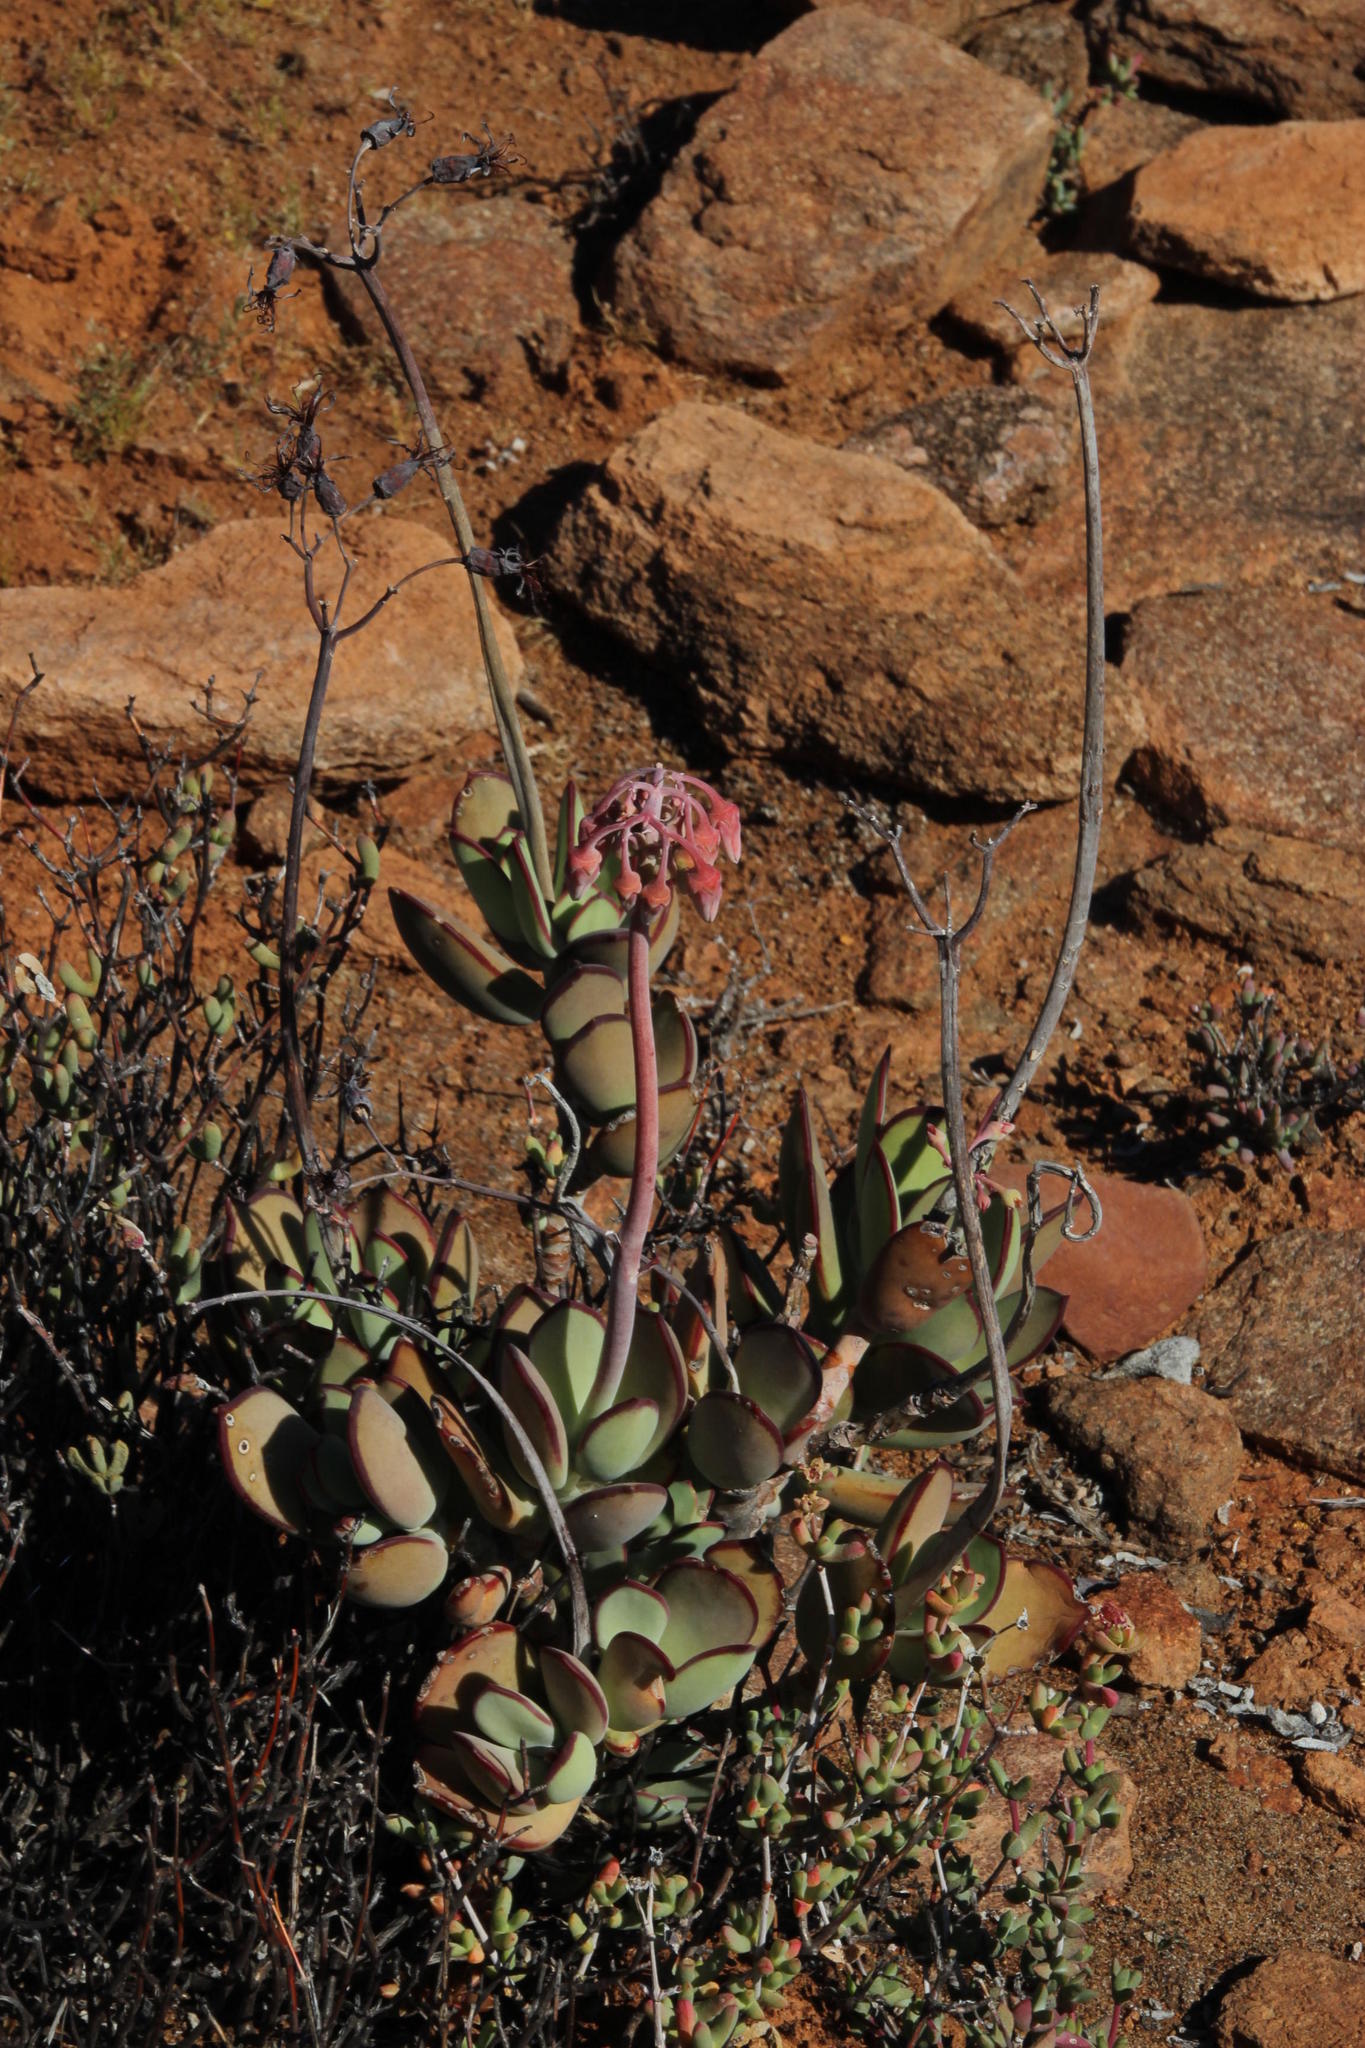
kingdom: Plantae
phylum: Tracheophyta
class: Magnoliopsida
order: Saxifragales
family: Crassulaceae
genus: Cotyledon
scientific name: Cotyledon orbiculata
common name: Pig's ear
